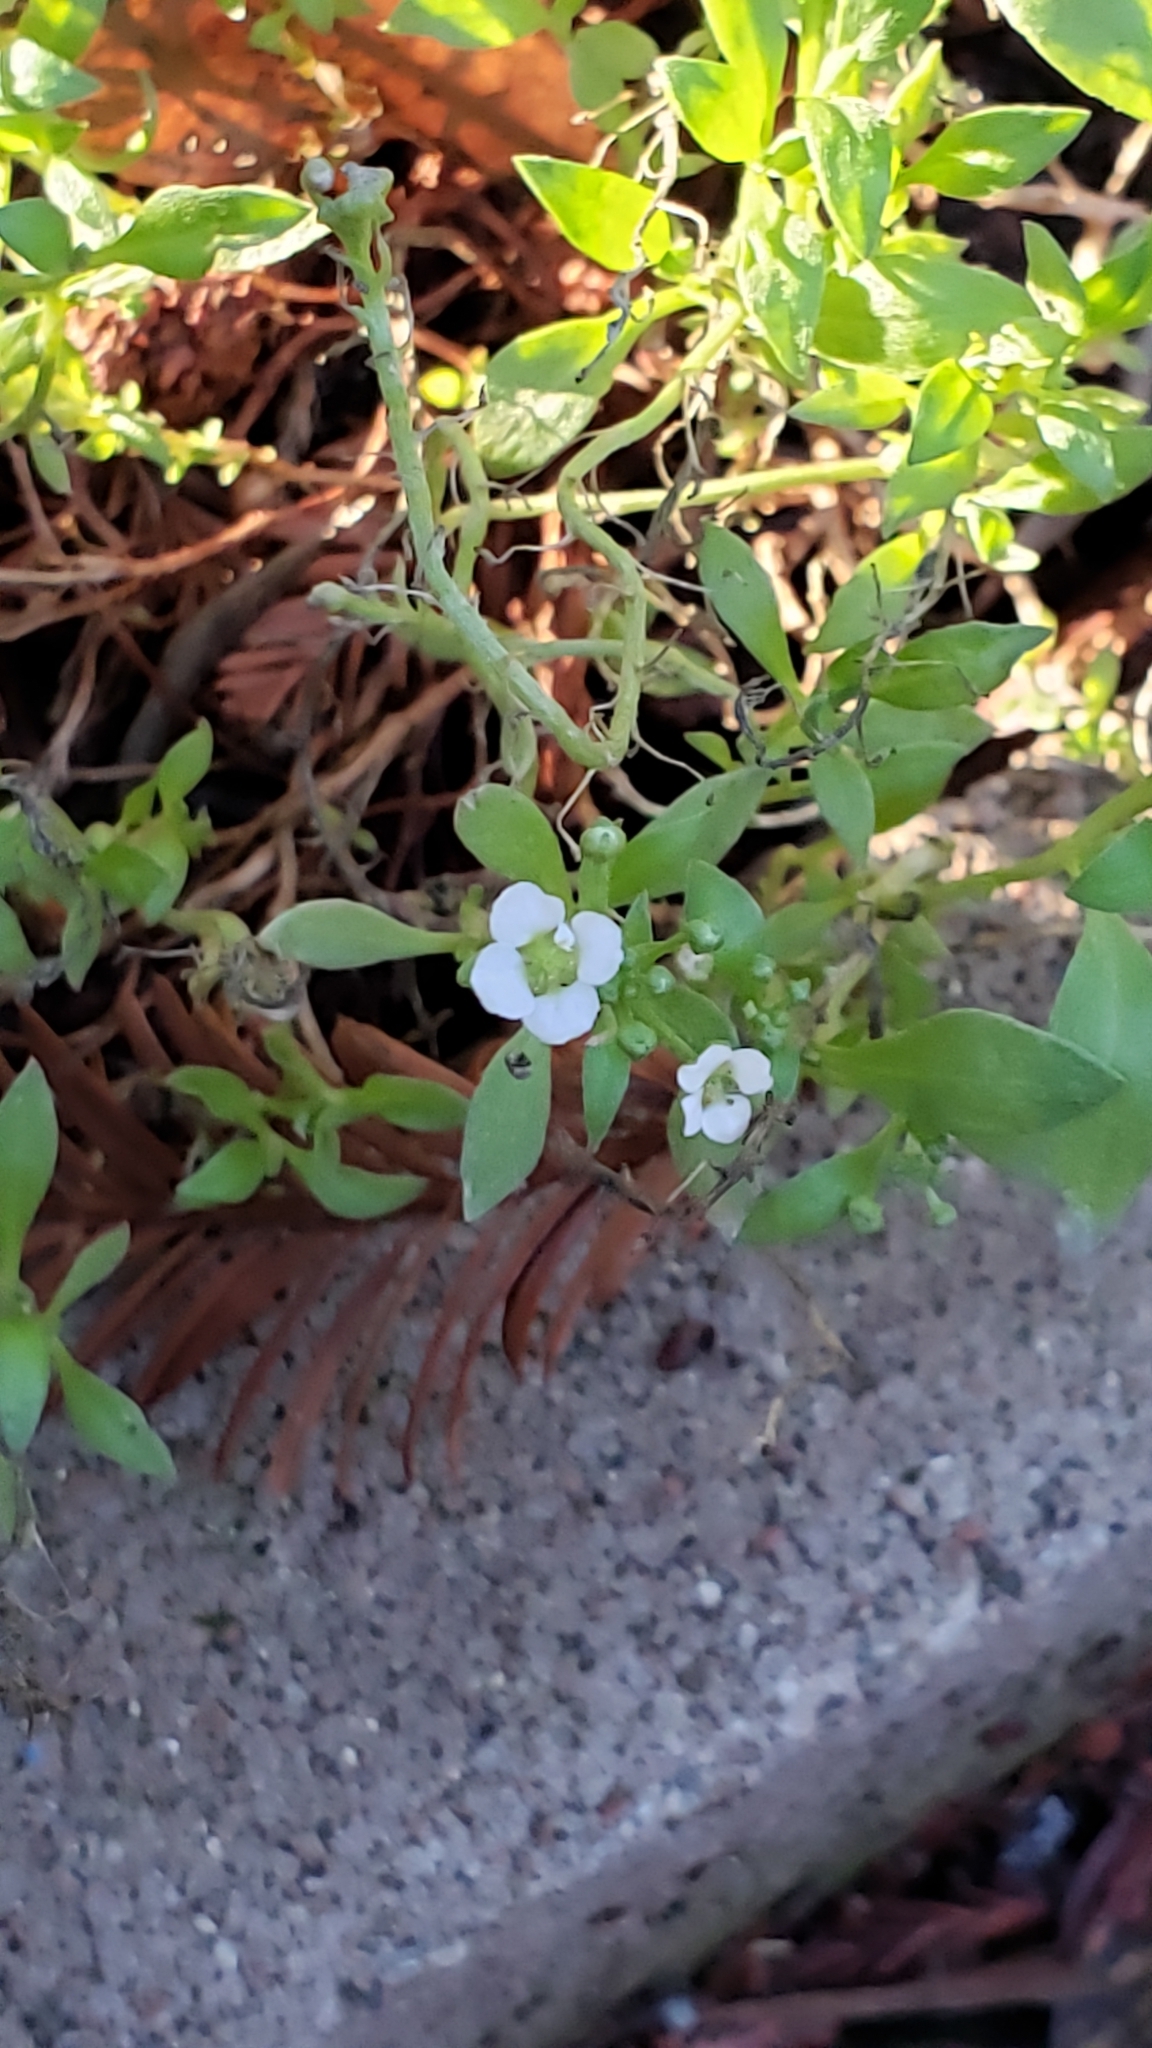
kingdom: Plantae
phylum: Tracheophyta
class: Magnoliopsida
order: Brassicales
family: Brassicaceae
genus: Lobularia
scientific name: Lobularia maritima
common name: Sweet alison
